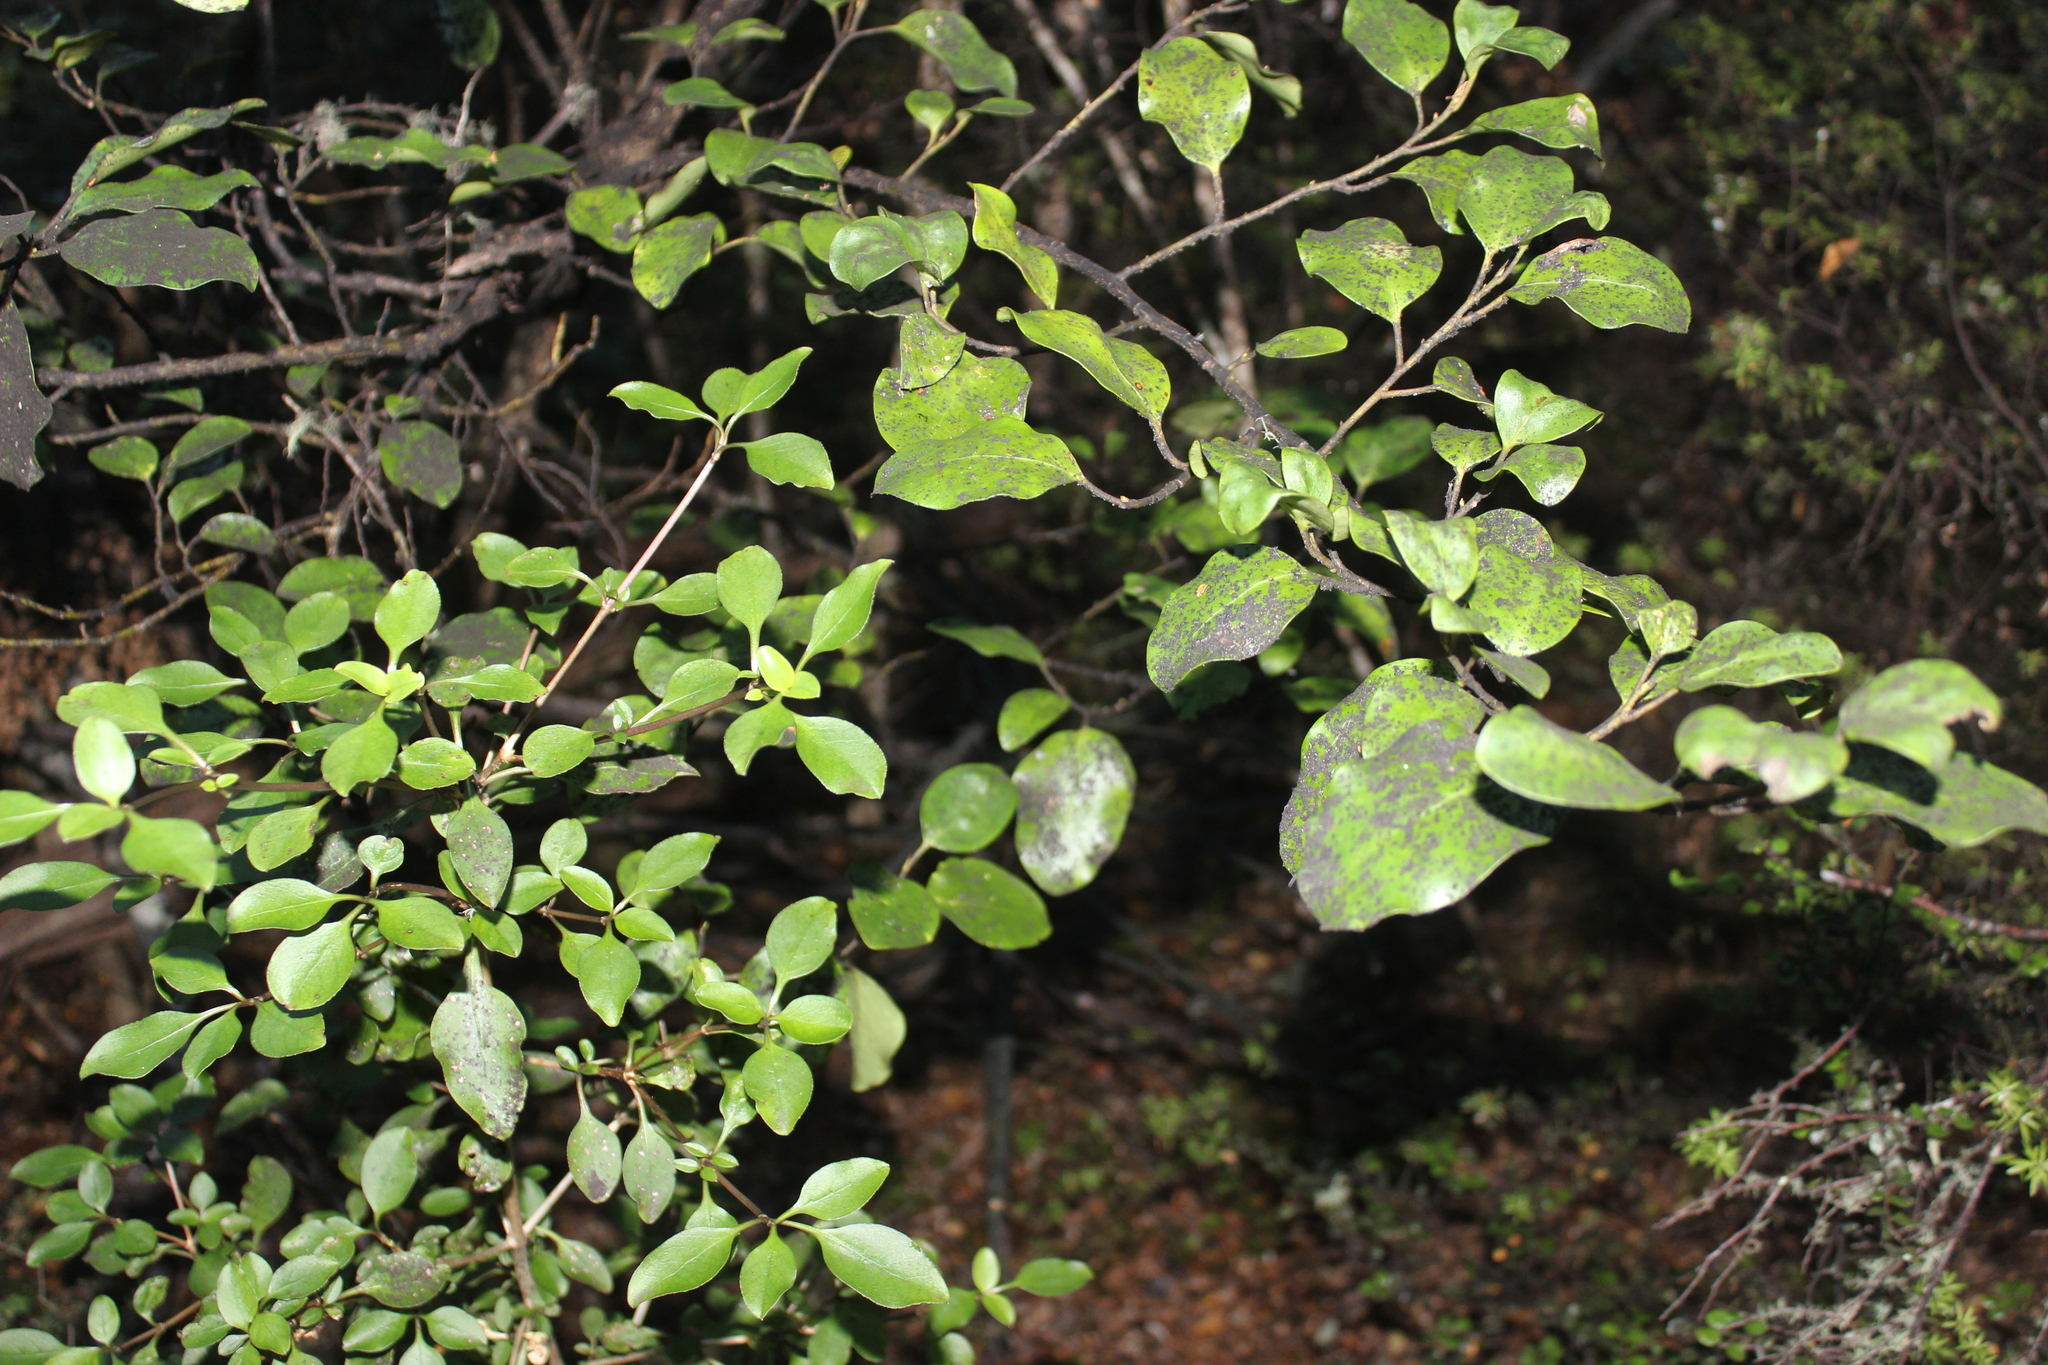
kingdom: Plantae
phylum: Tracheophyta
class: Magnoliopsida
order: Gentianales
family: Rubiaceae
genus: Coprosma
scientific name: Coprosma foetidissima
